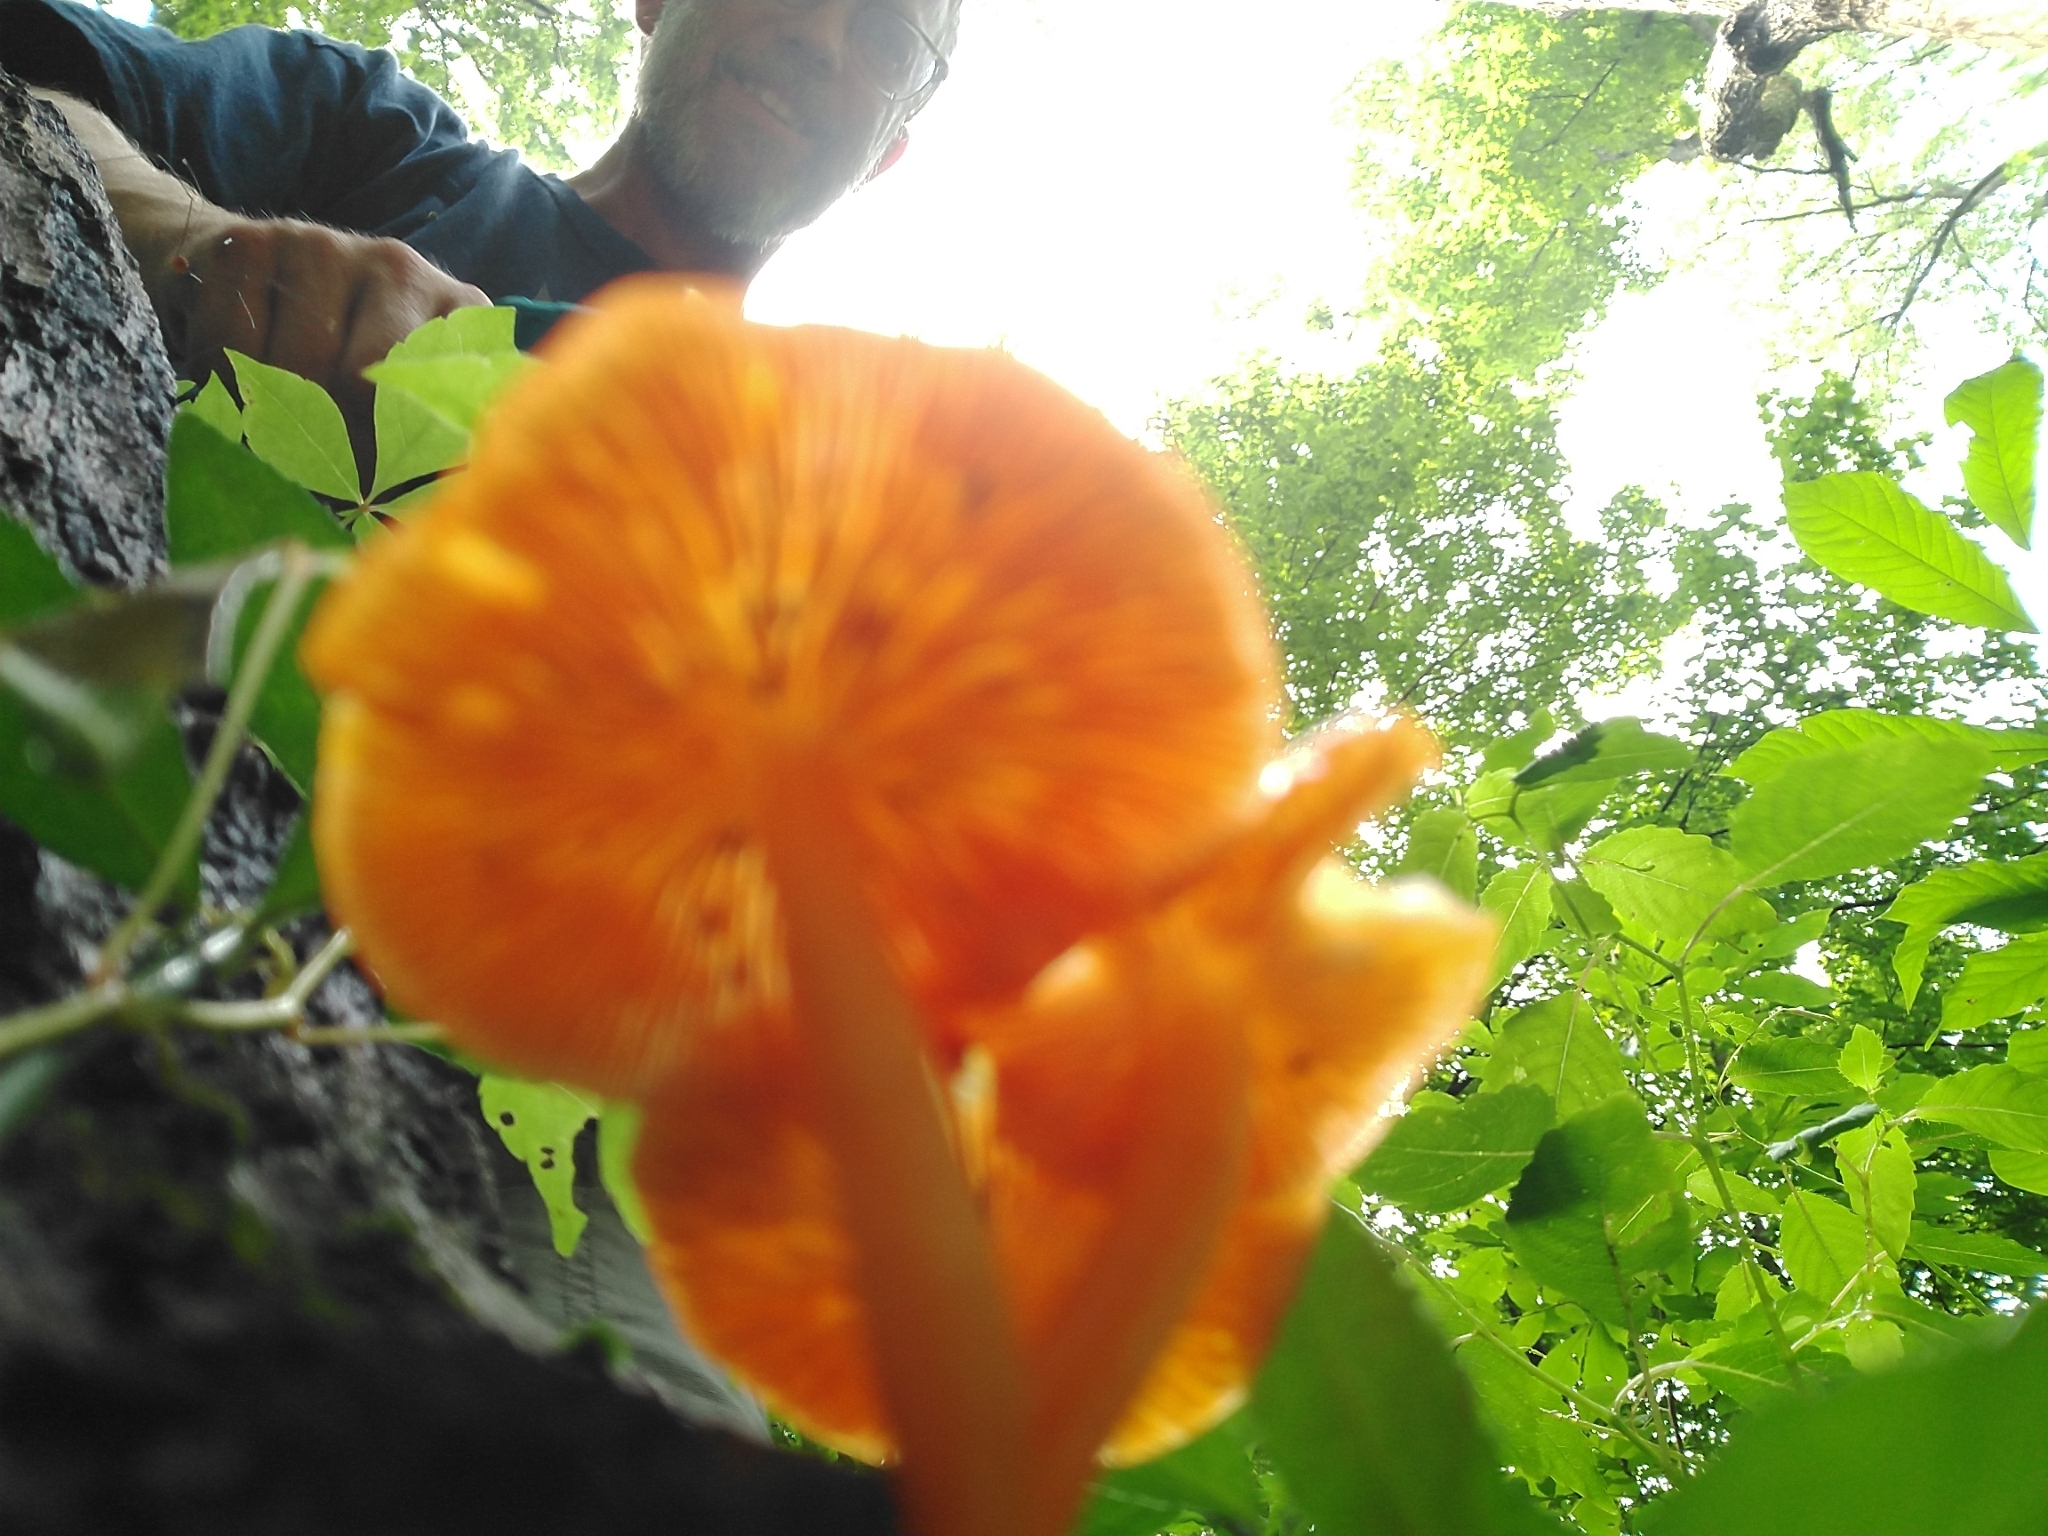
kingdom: Fungi
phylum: Basidiomycota
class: Agaricomycetes
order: Agaricales
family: Mycenaceae
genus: Mycena
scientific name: Mycena leaiana
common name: Orange mycena
